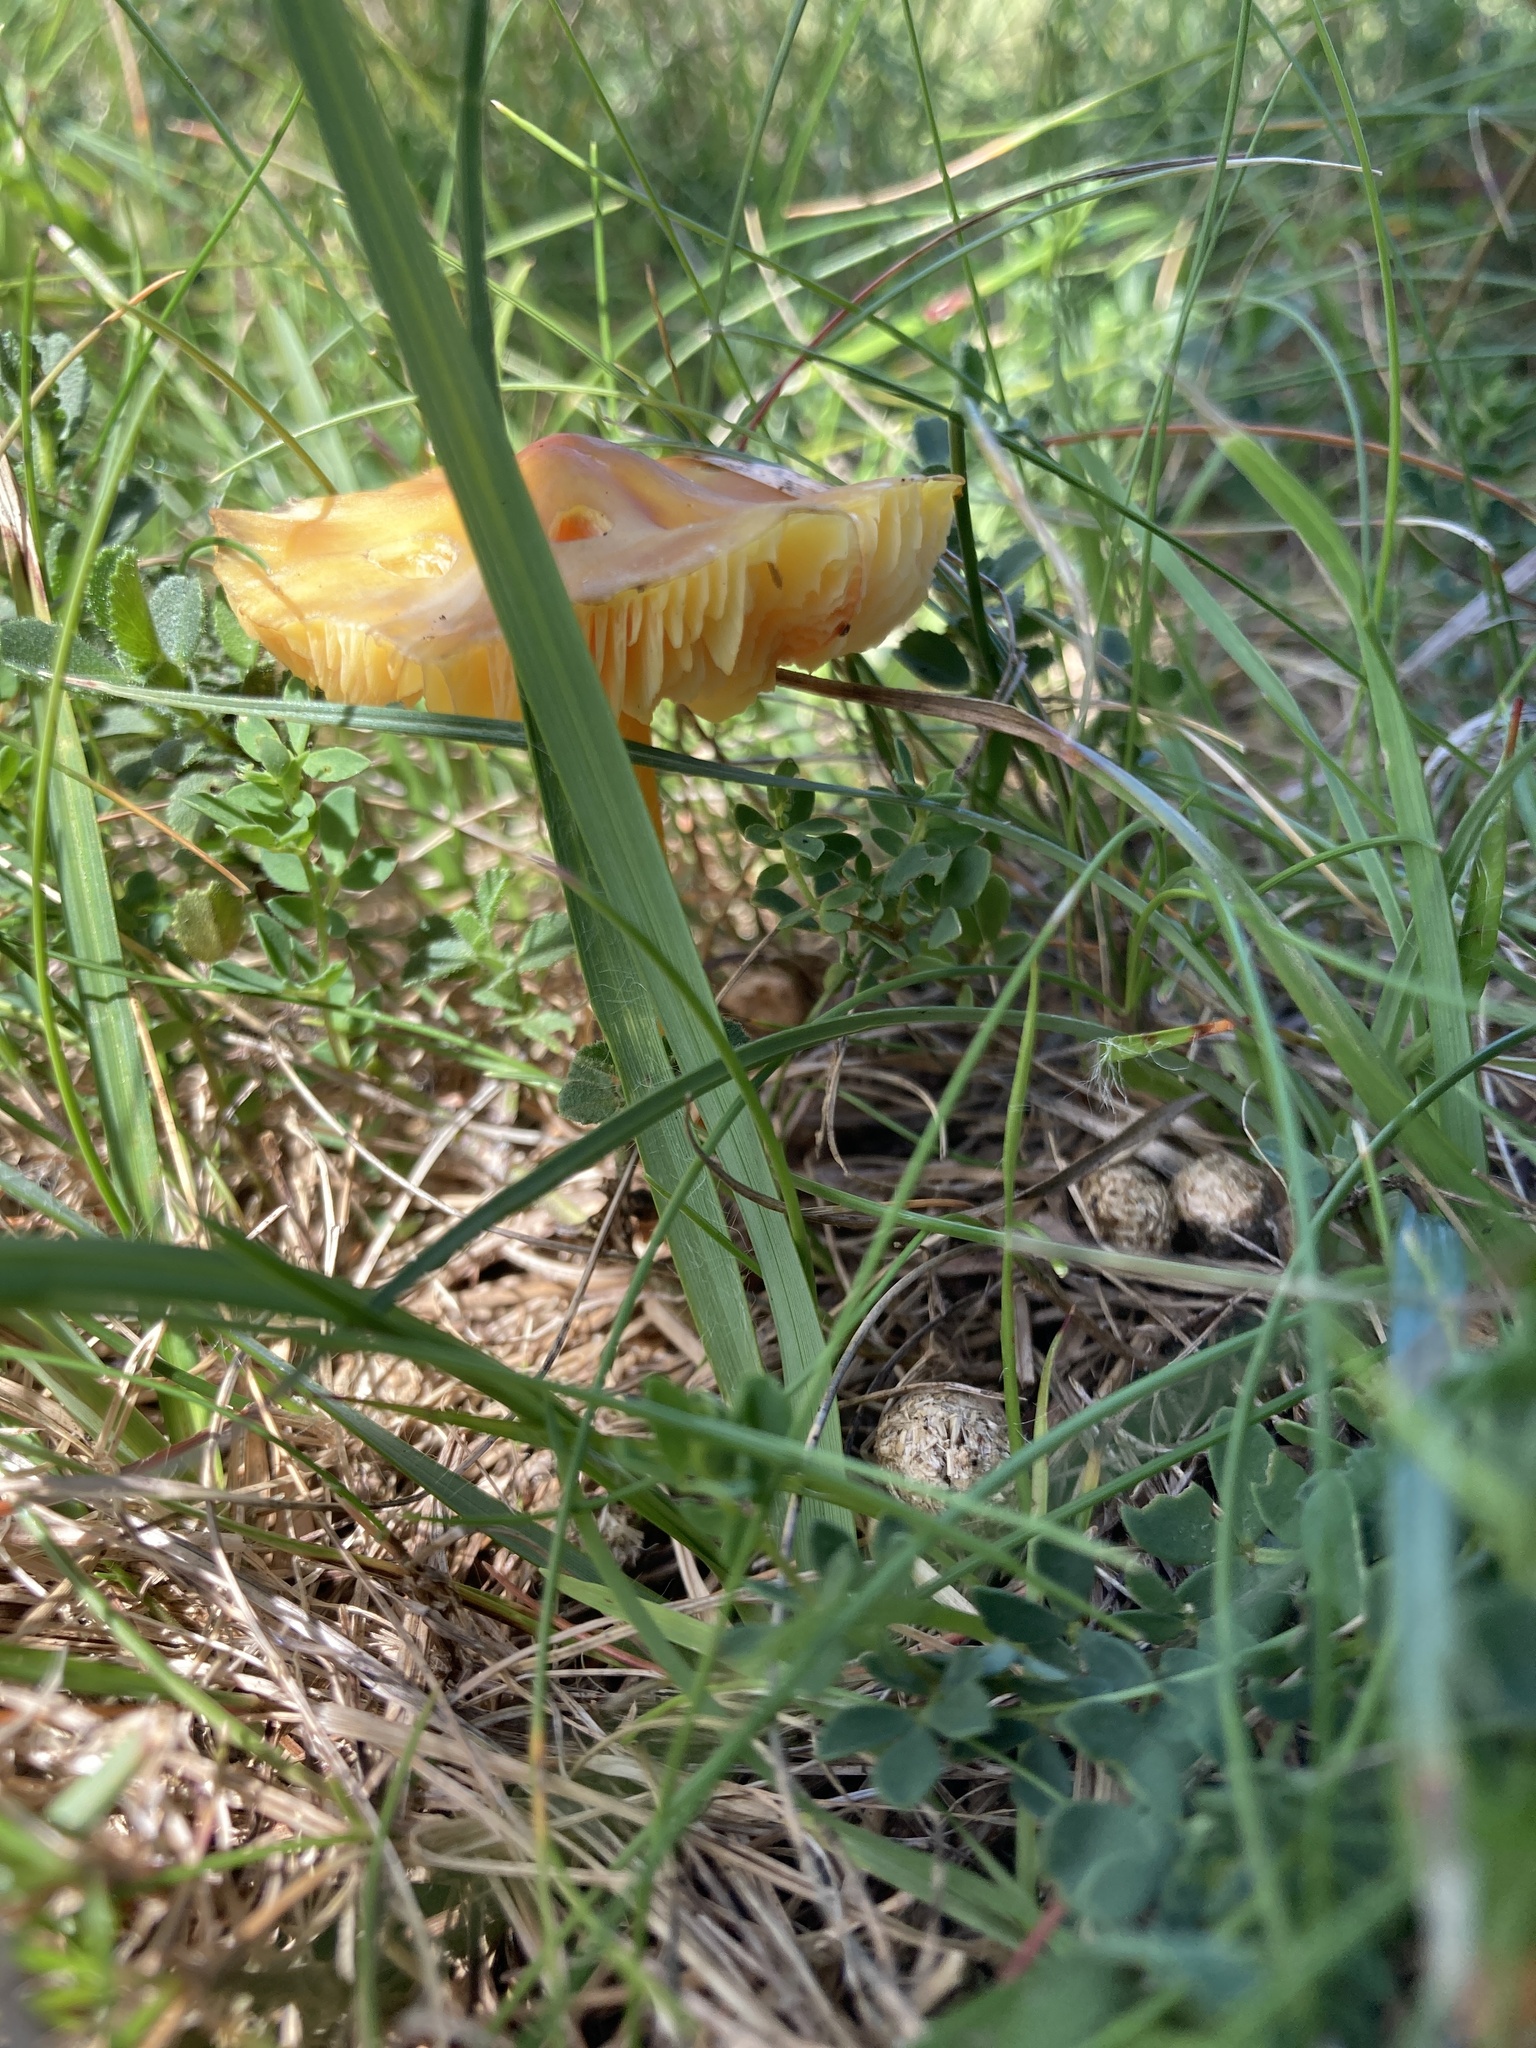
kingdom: Fungi
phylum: Basidiomycota
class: Agaricomycetes
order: Agaricales
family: Hygrophoraceae
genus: Hygrocybe
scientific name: Hygrocybe acutoconica
